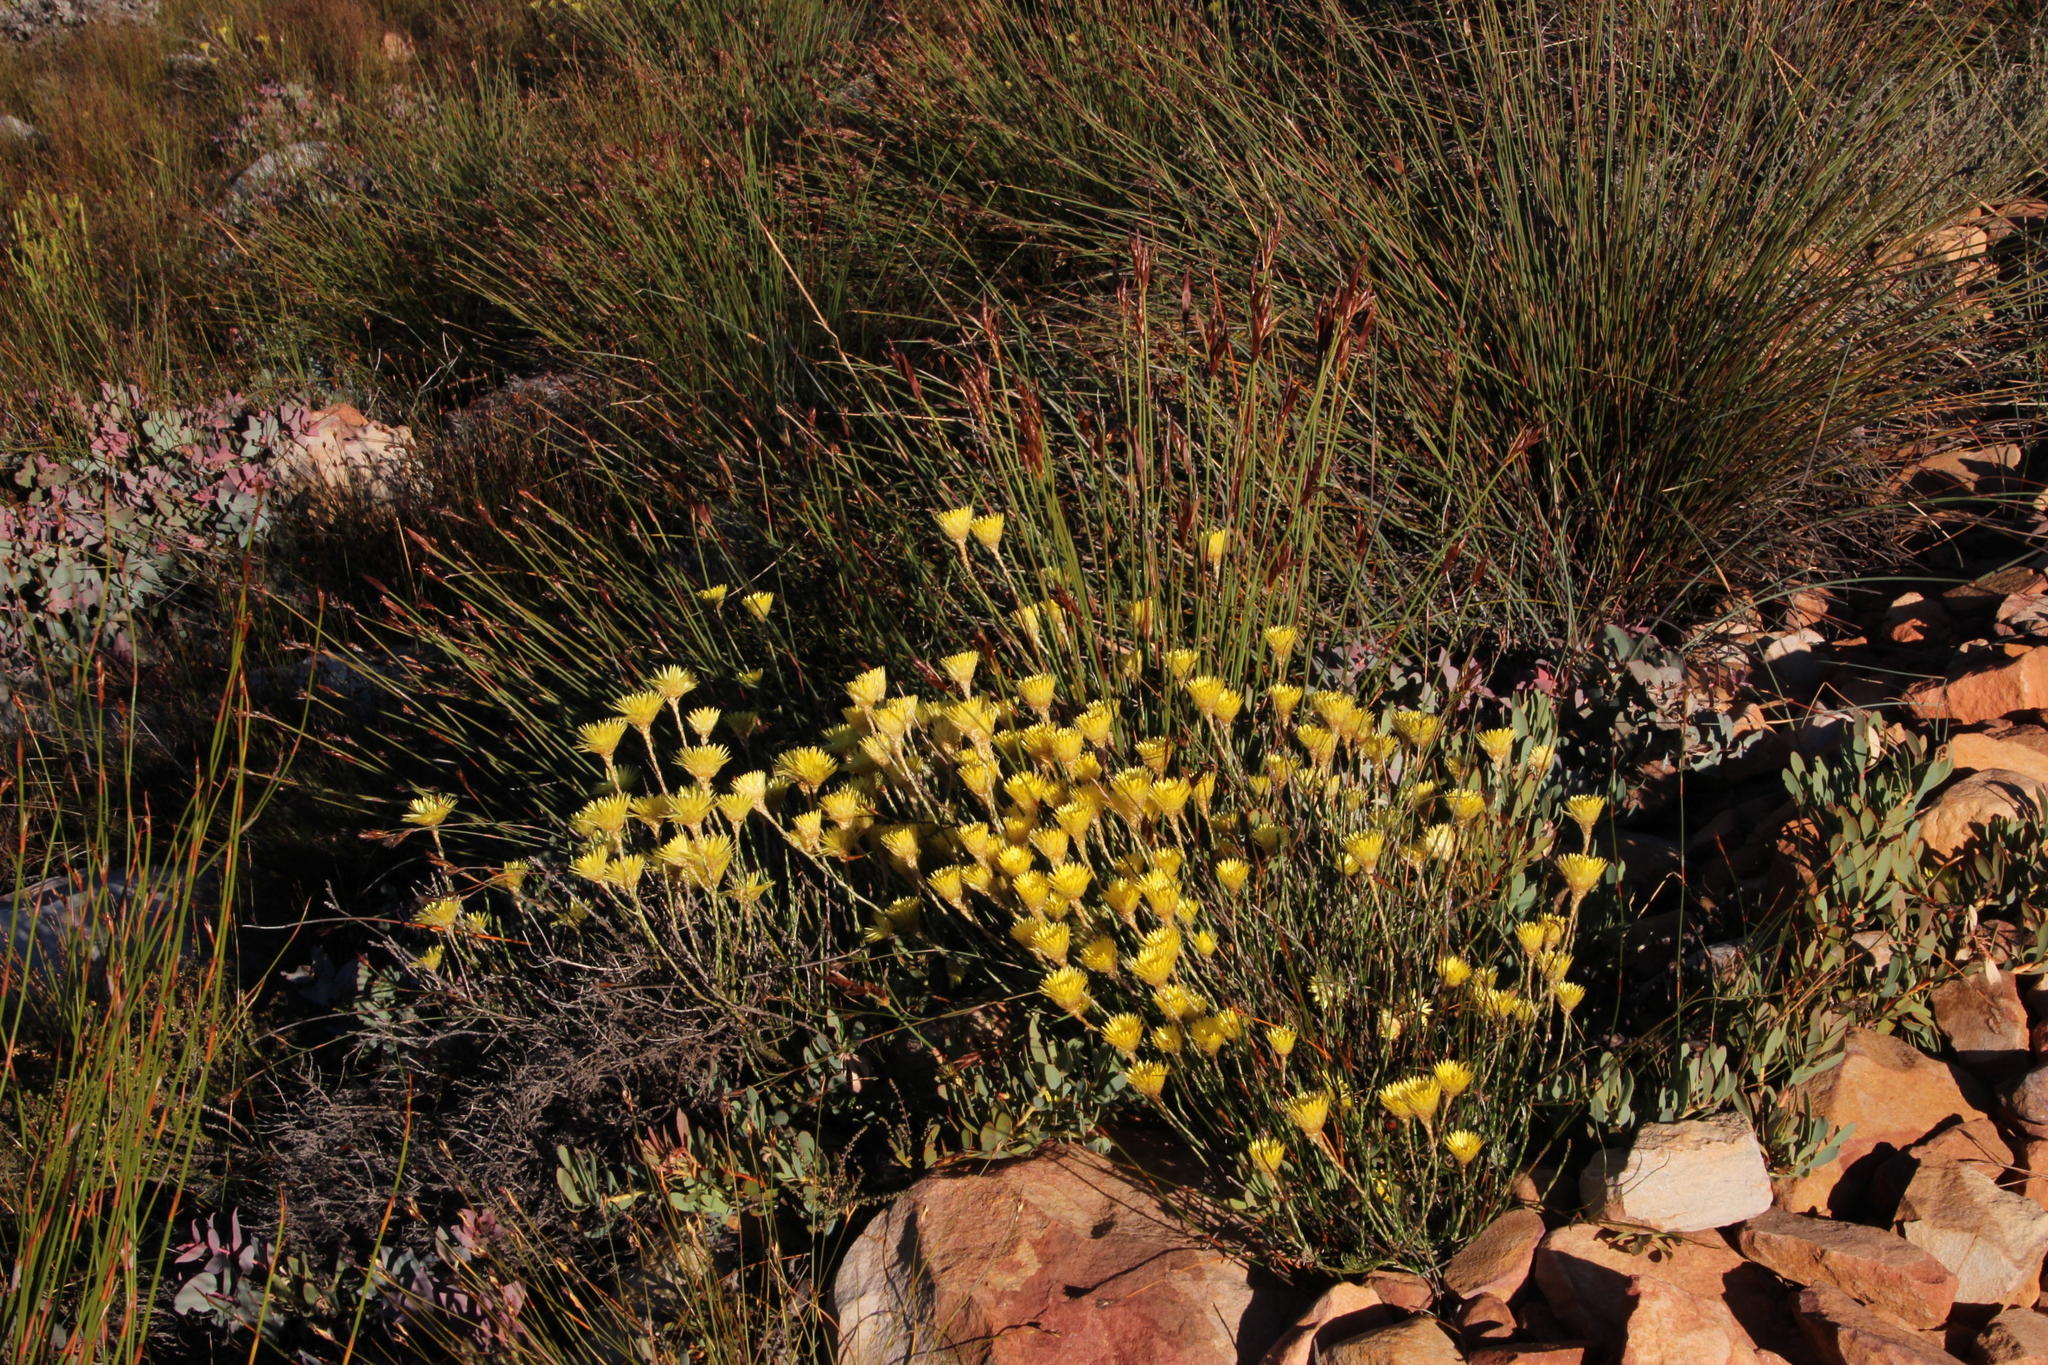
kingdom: Plantae
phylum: Tracheophyta
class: Magnoliopsida
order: Asterales
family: Asteraceae
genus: Edmondia
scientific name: Edmondia fasciculata
